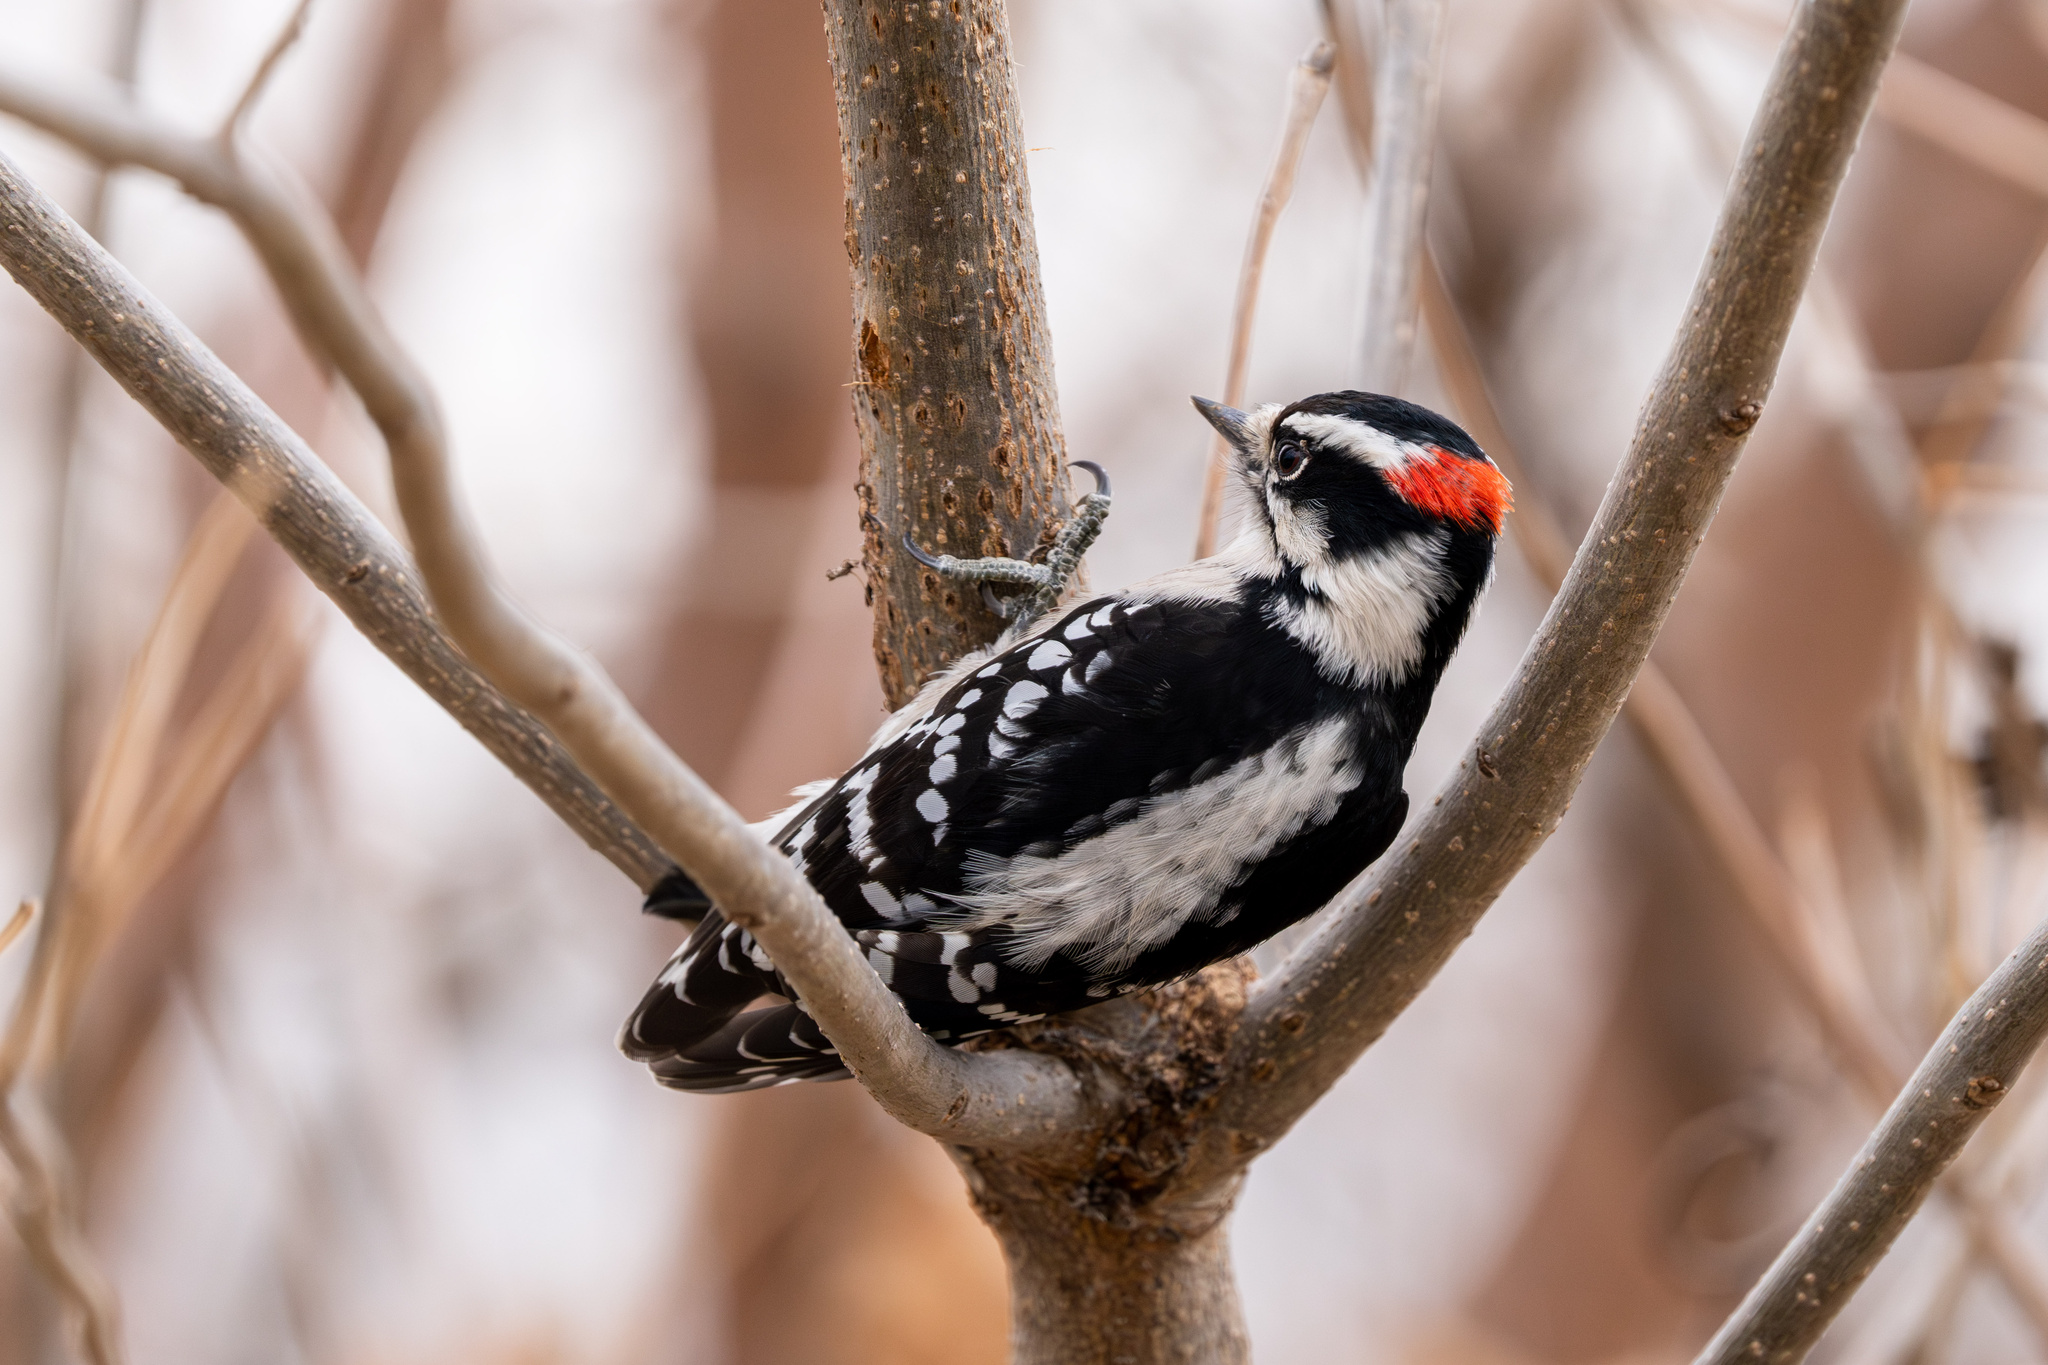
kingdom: Animalia
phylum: Chordata
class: Aves
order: Piciformes
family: Picidae
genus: Dryobates
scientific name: Dryobates pubescens
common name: Downy woodpecker
